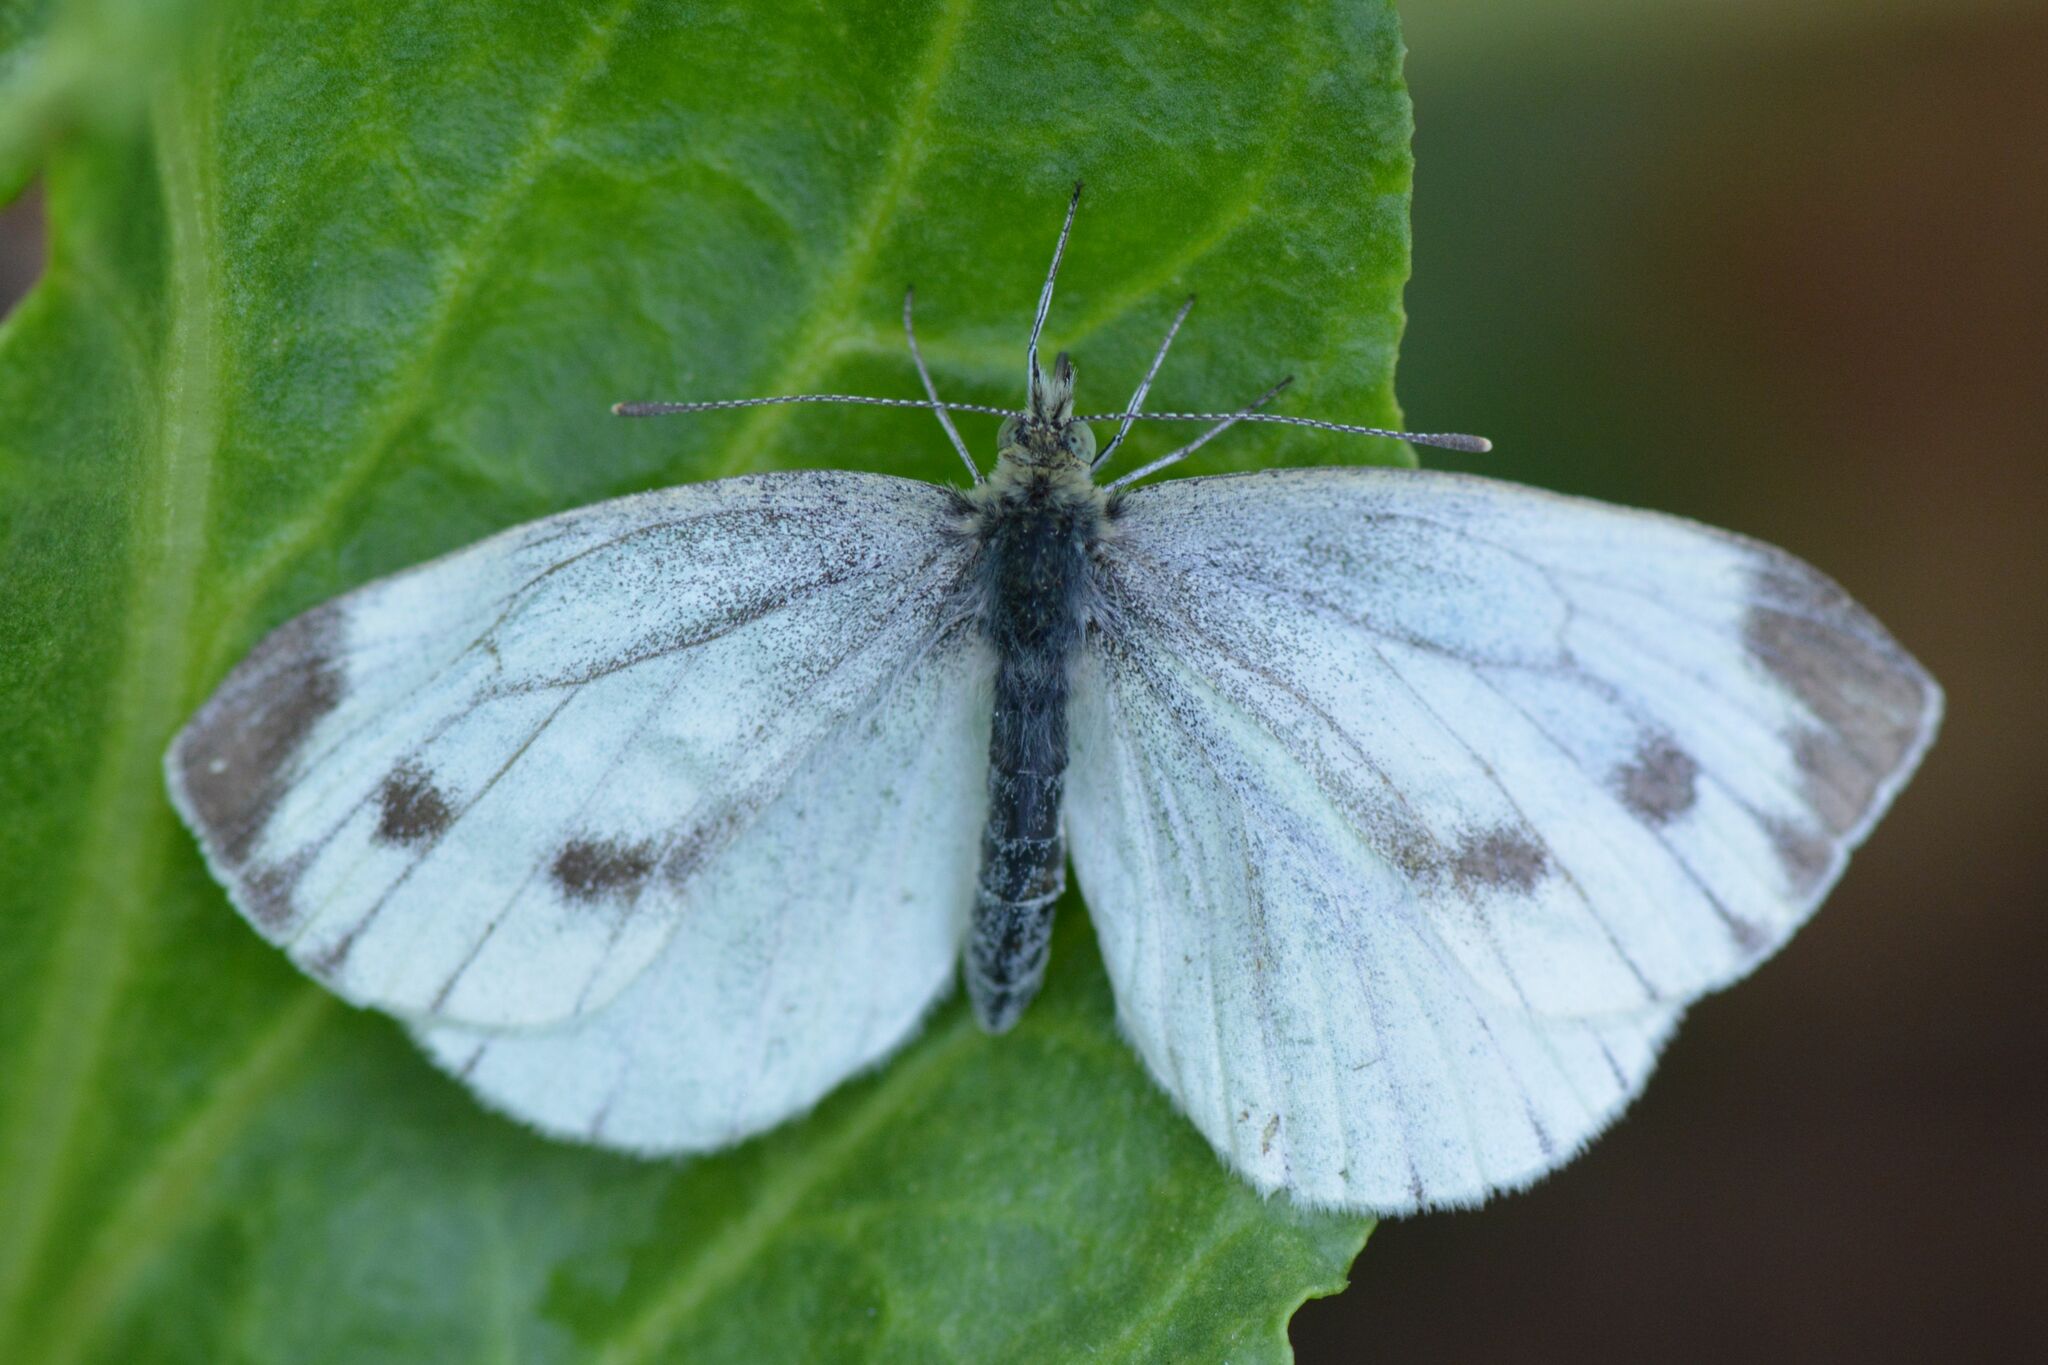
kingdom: Animalia
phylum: Arthropoda
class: Insecta
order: Lepidoptera
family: Pieridae
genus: Pieris
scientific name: Pieris napi
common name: Green-veined white
